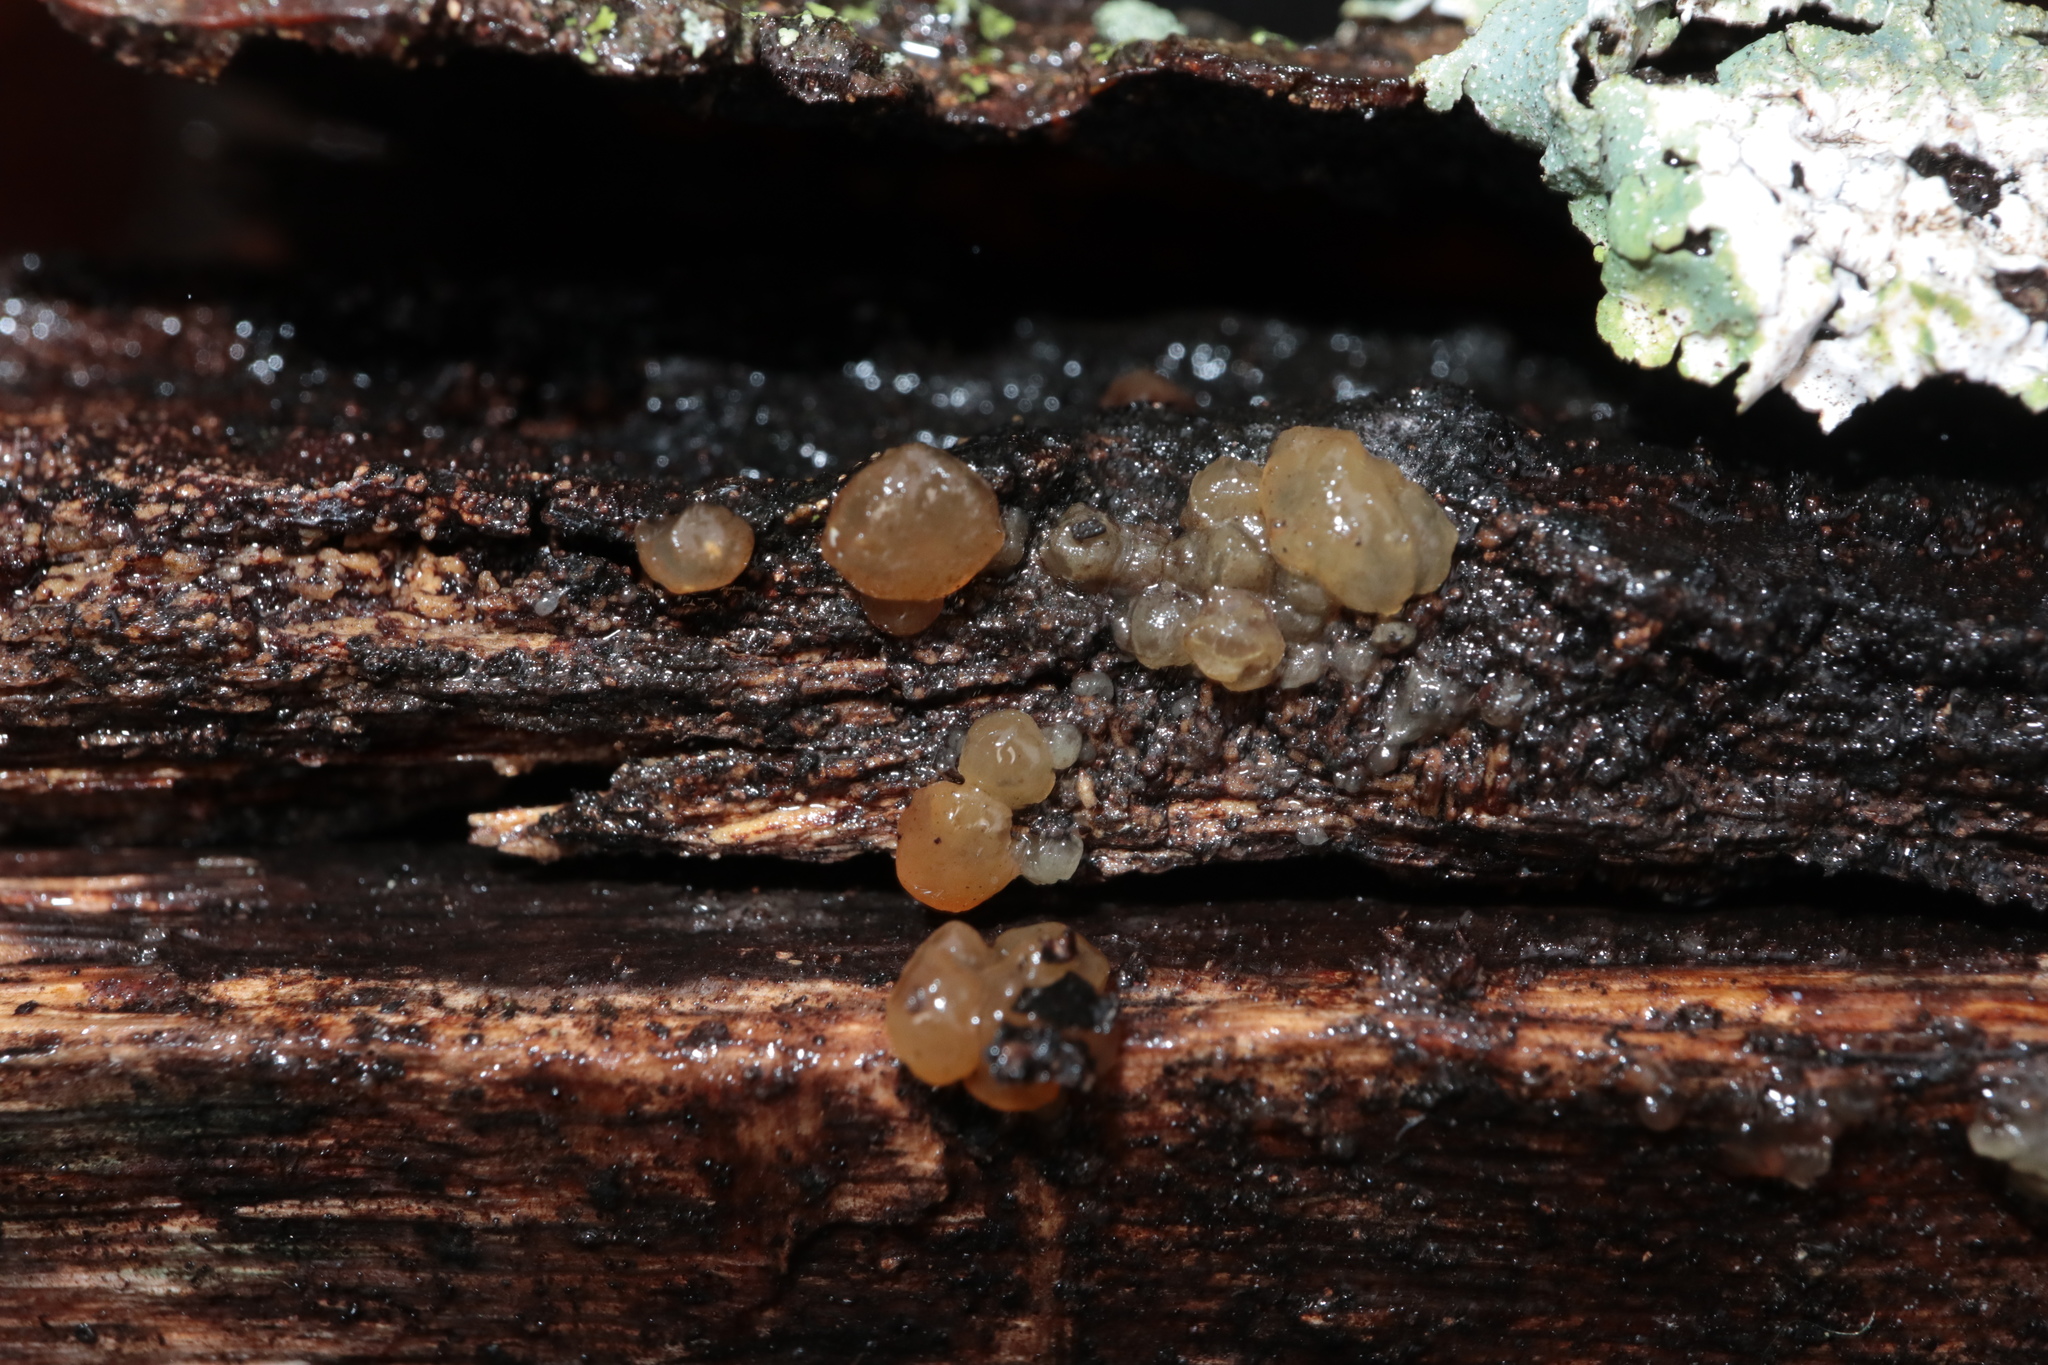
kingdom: Fungi
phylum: Basidiomycota
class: Agaricomycetes
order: Auriculariales
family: Hyaloriaceae
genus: Myxarium
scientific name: Myxarium nucleatum
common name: Crystal brain fungus
